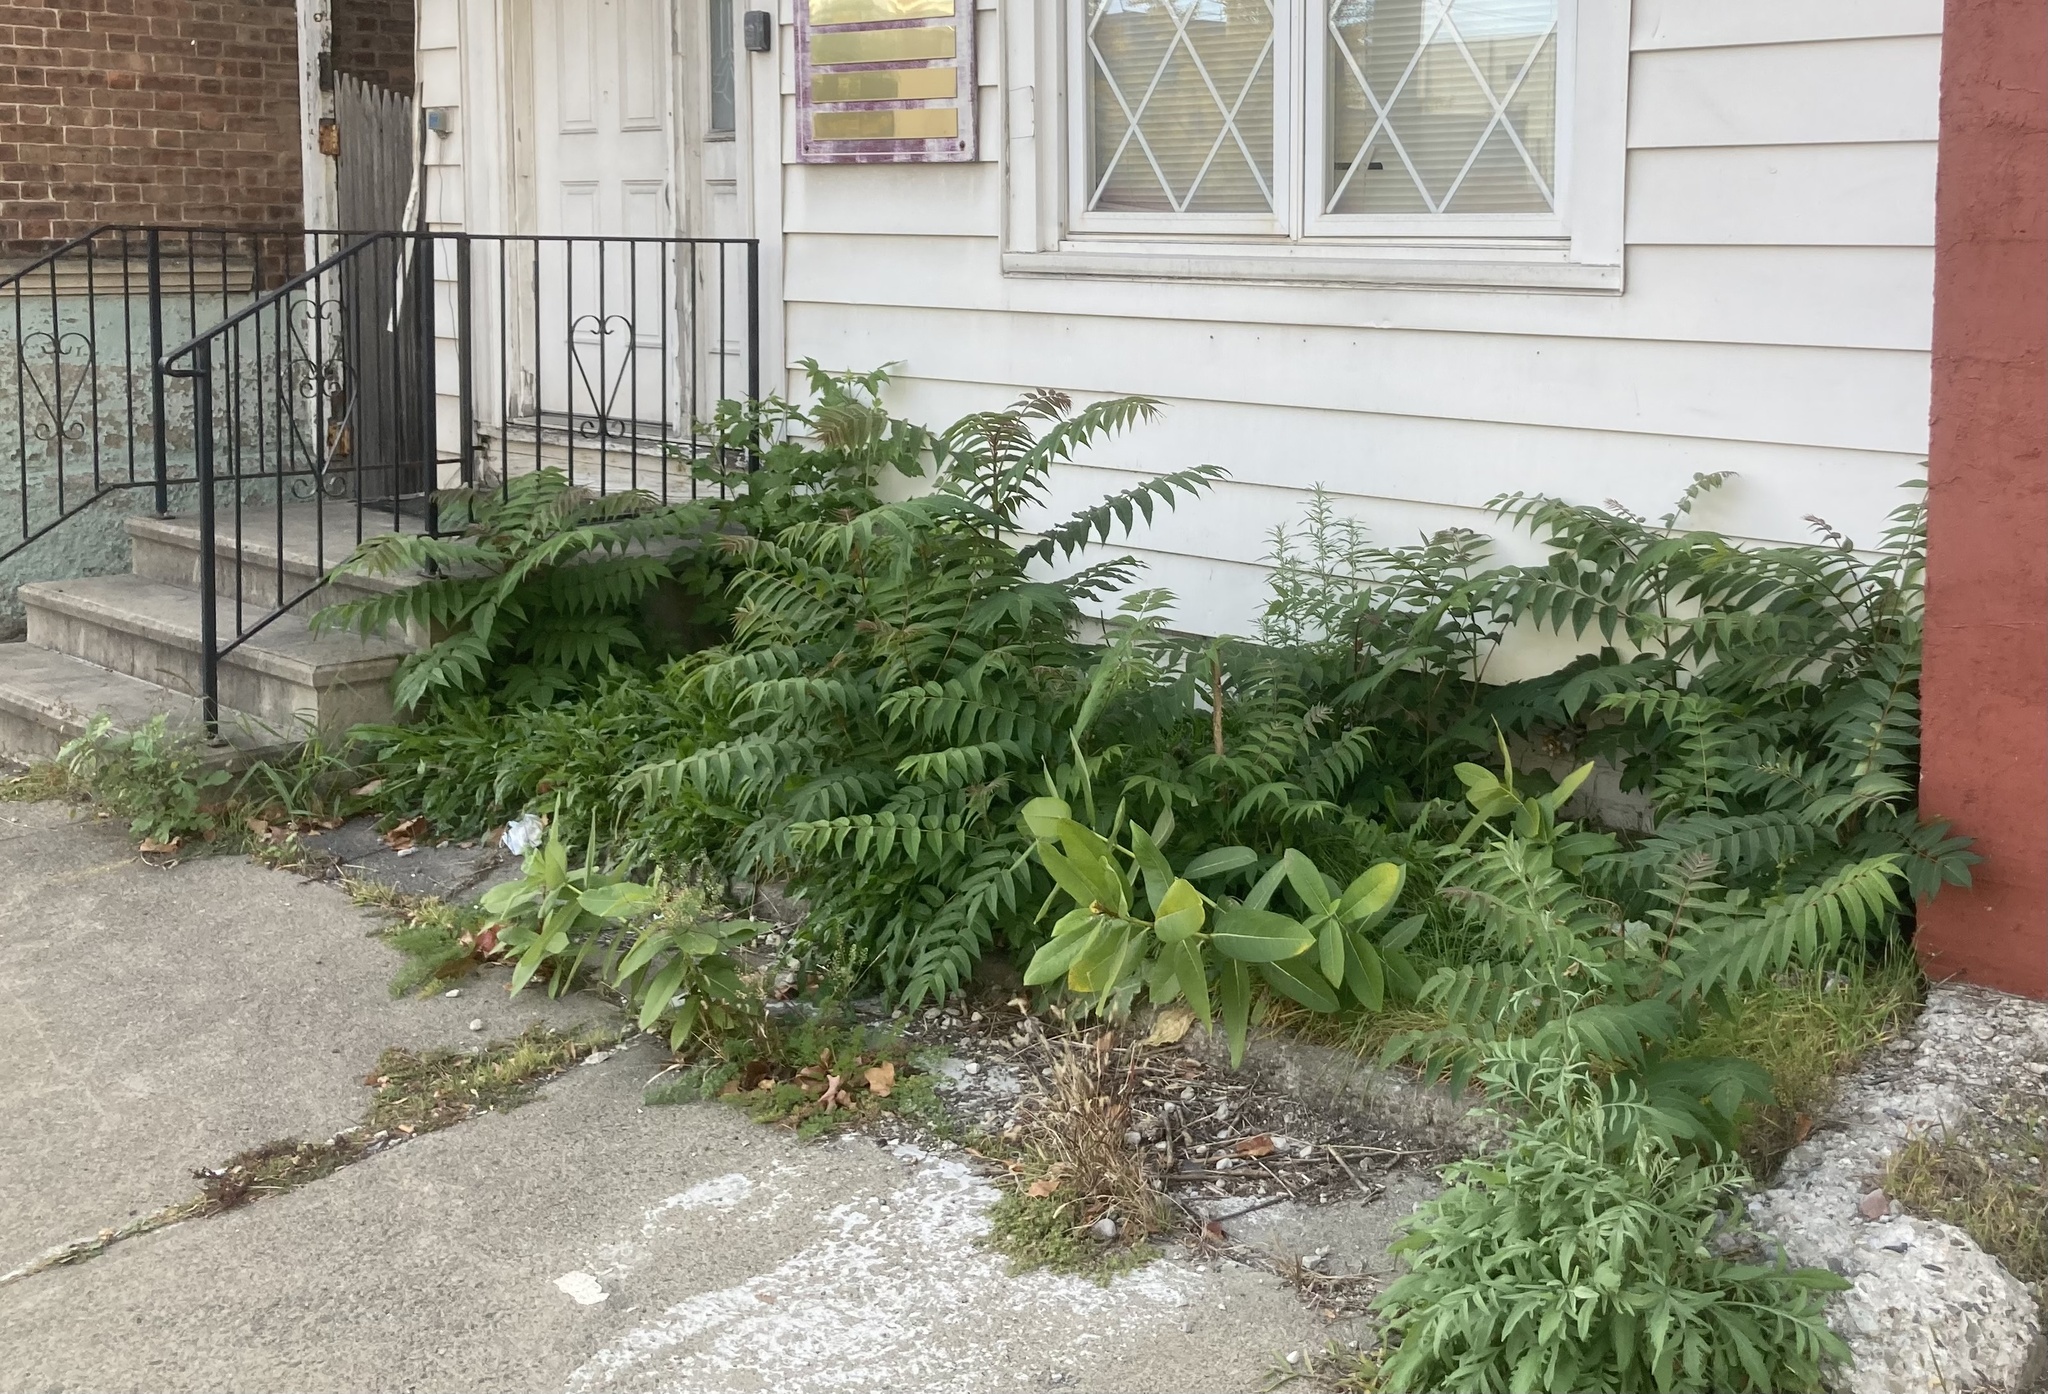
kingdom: Plantae
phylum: Tracheophyta
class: Magnoliopsida
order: Sapindales
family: Simaroubaceae
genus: Ailanthus
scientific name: Ailanthus altissima
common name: Tree-of-heaven
